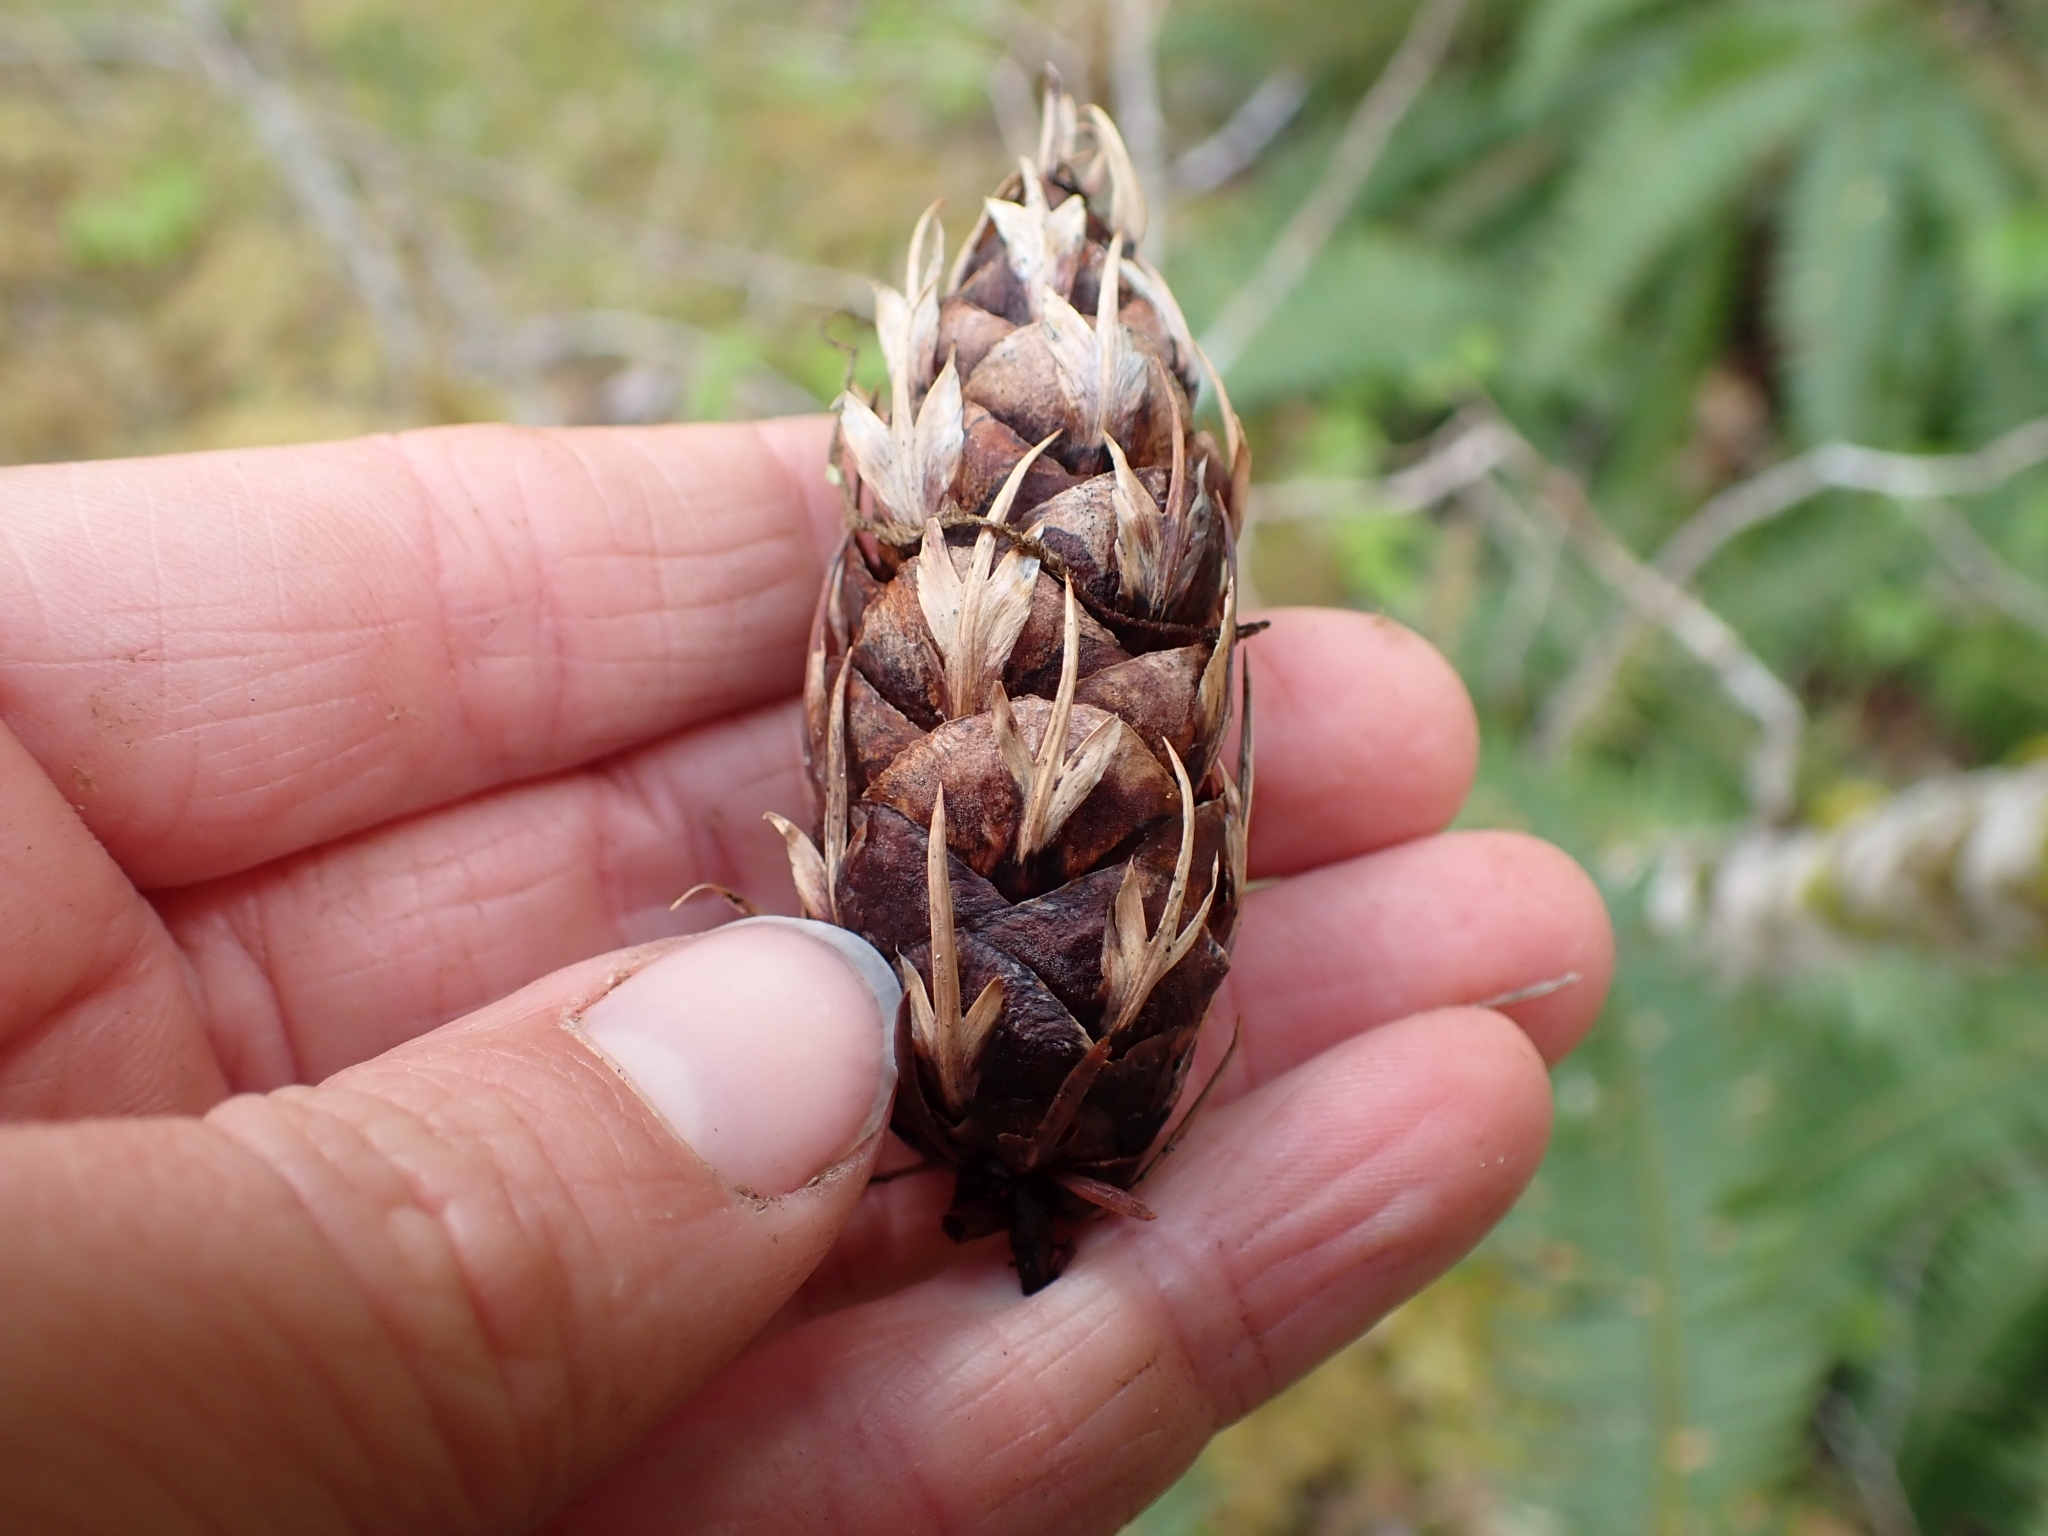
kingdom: Plantae
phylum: Tracheophyta
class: Pinopsida
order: Pinales
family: Pinaceae
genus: Pseudotsuga
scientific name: Pseudotsuga menziesii
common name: Douglas fir
